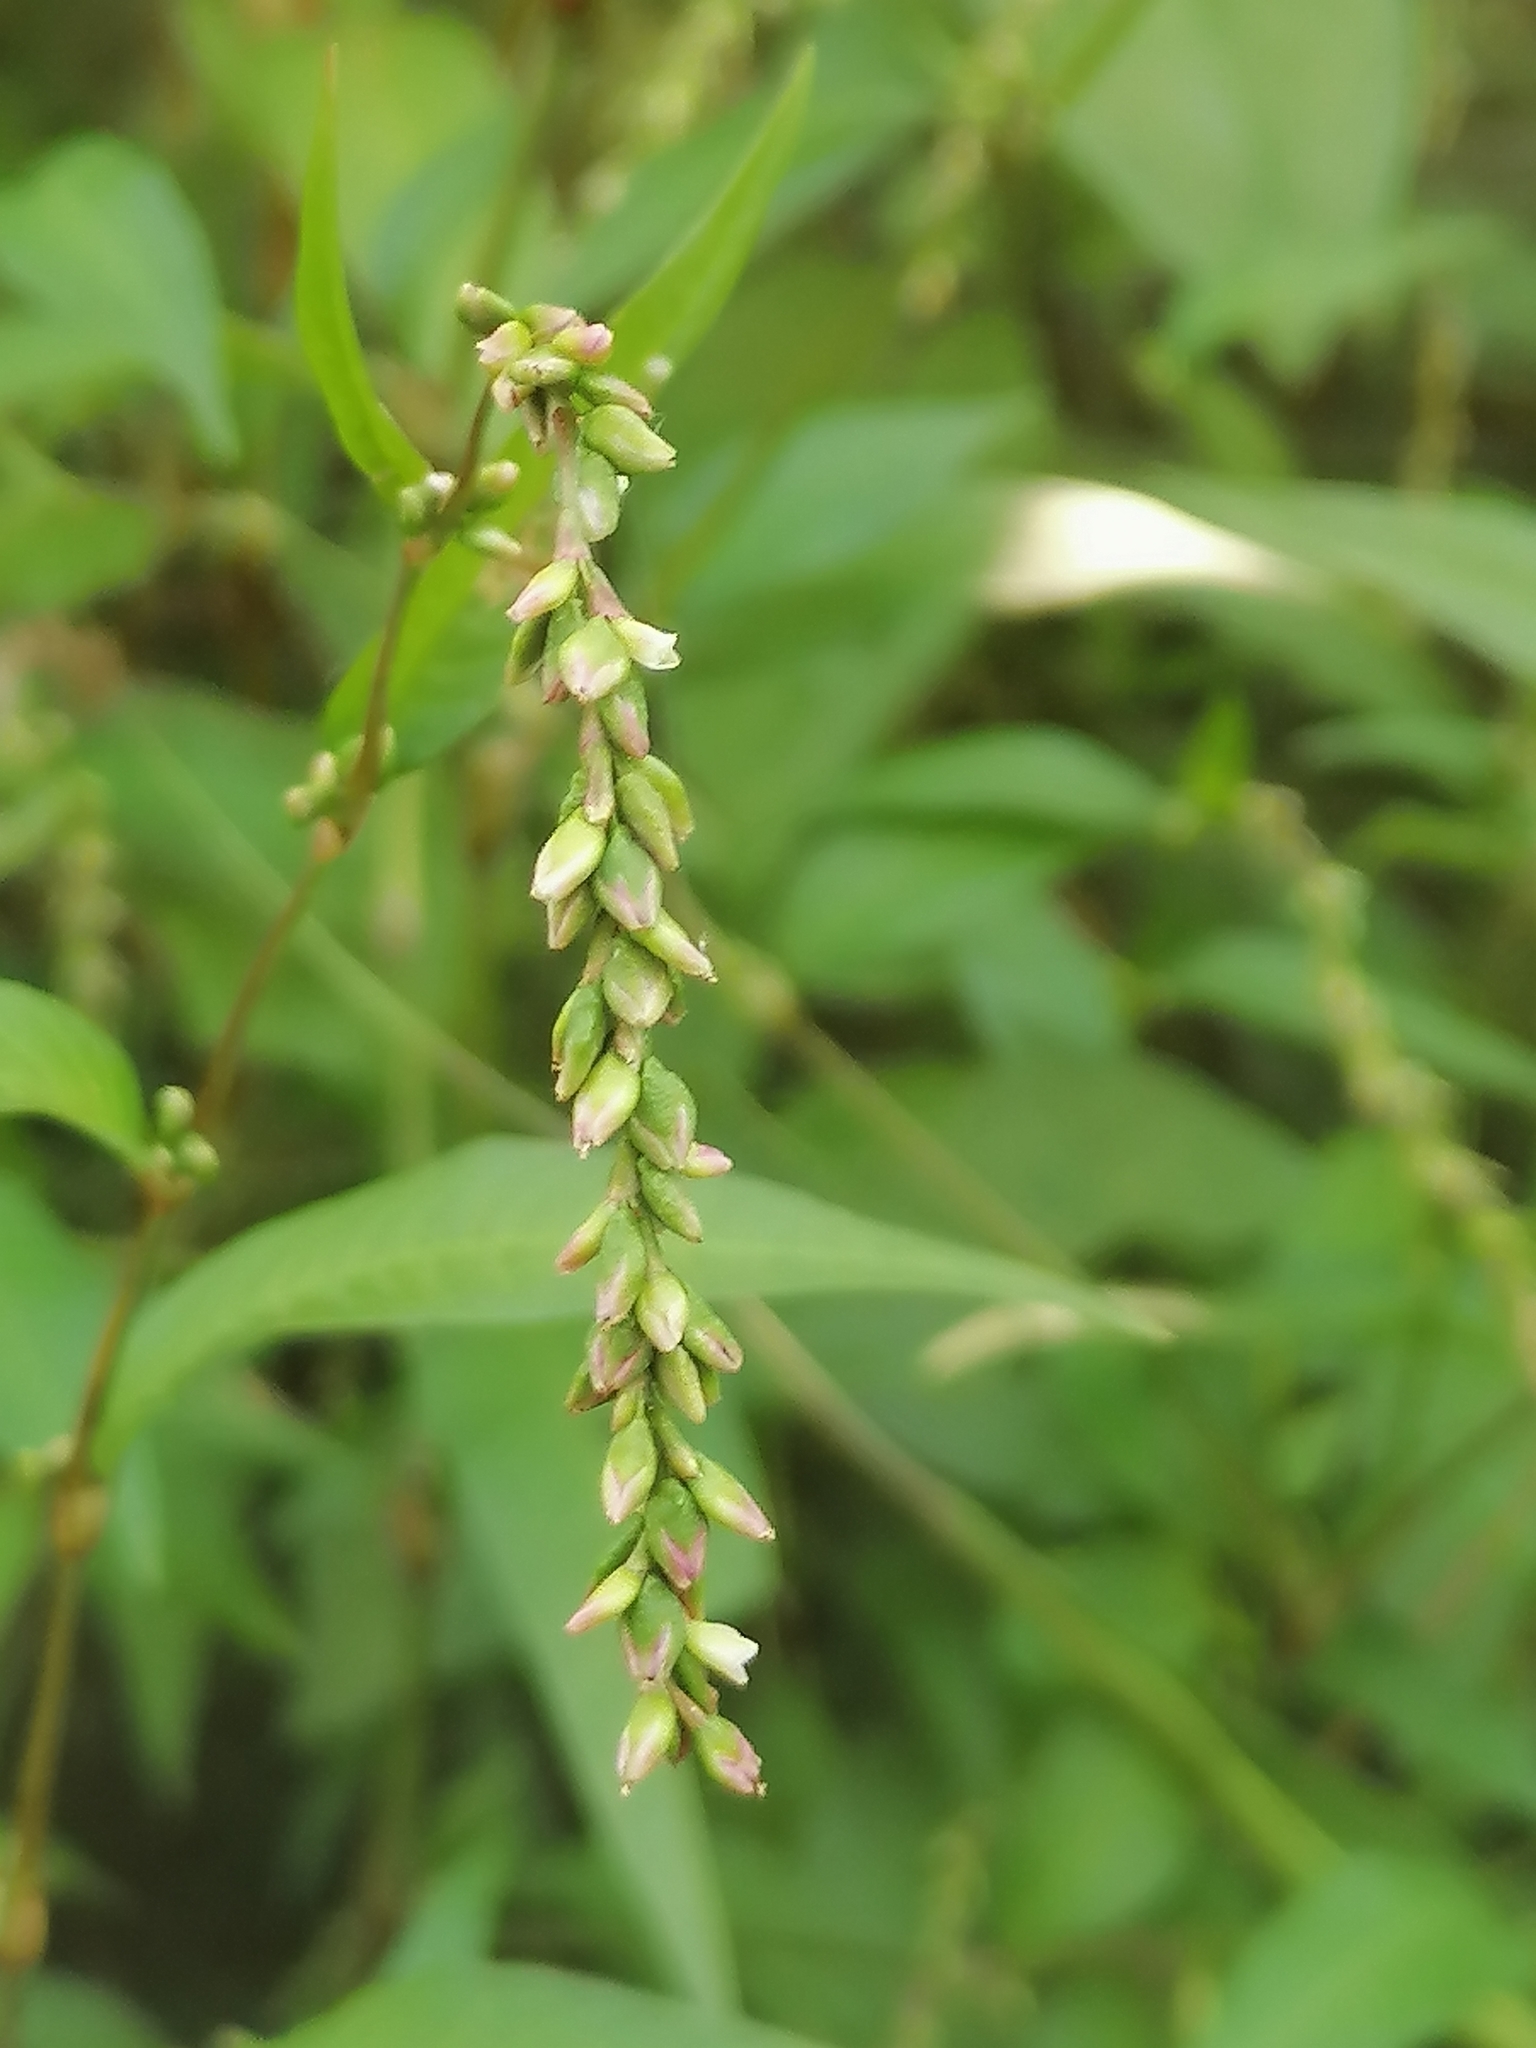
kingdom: Plantae
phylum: Tracheophyta
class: Magnoliopsida
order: Caryophyllales
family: Polygonaceae
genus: Persicaria
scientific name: Persicaria hydropiper
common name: Water-pepper
